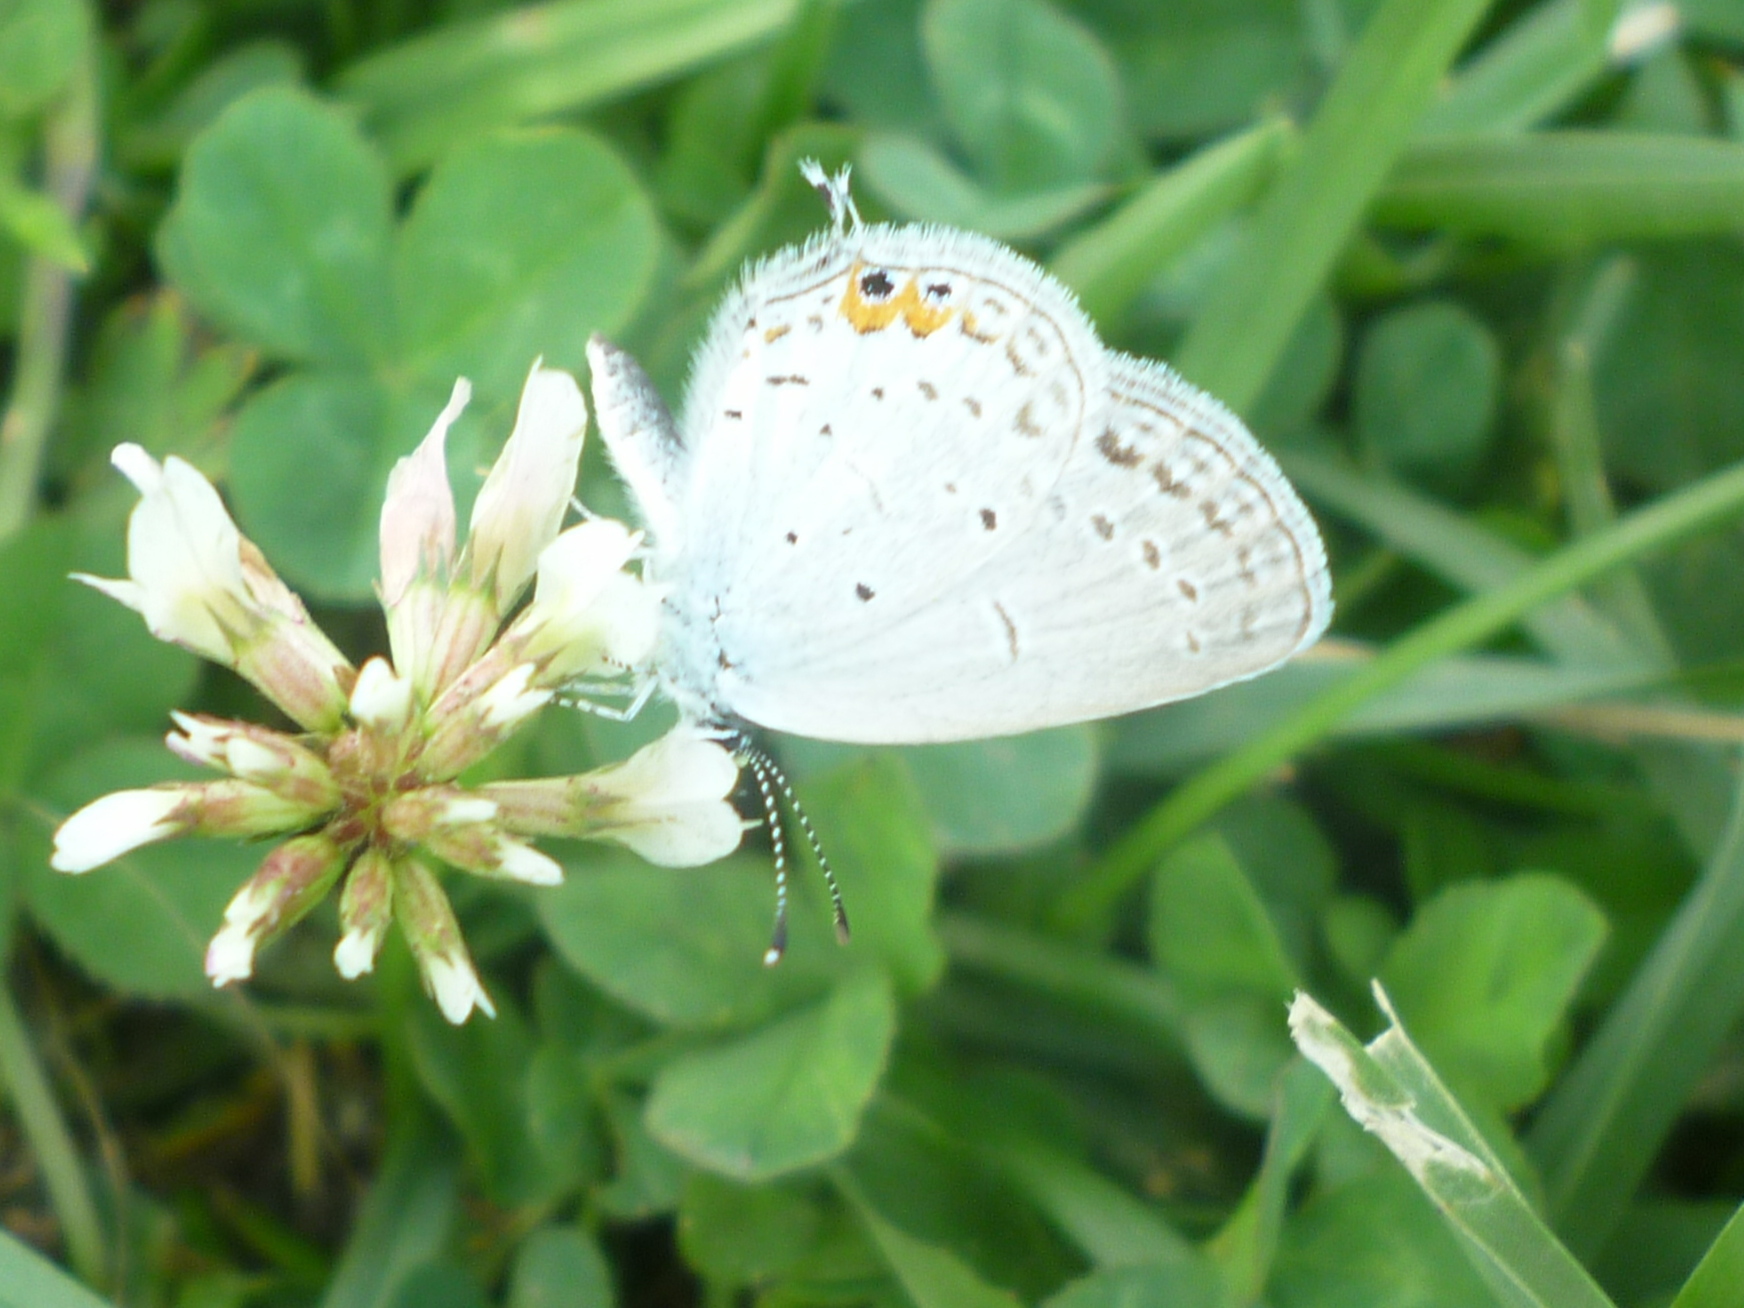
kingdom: Animalia
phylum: Arthropoda
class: Insecta
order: Lepidoptera
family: Lycaenidae
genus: Elkalyce
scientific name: Elkalyce comyntas
